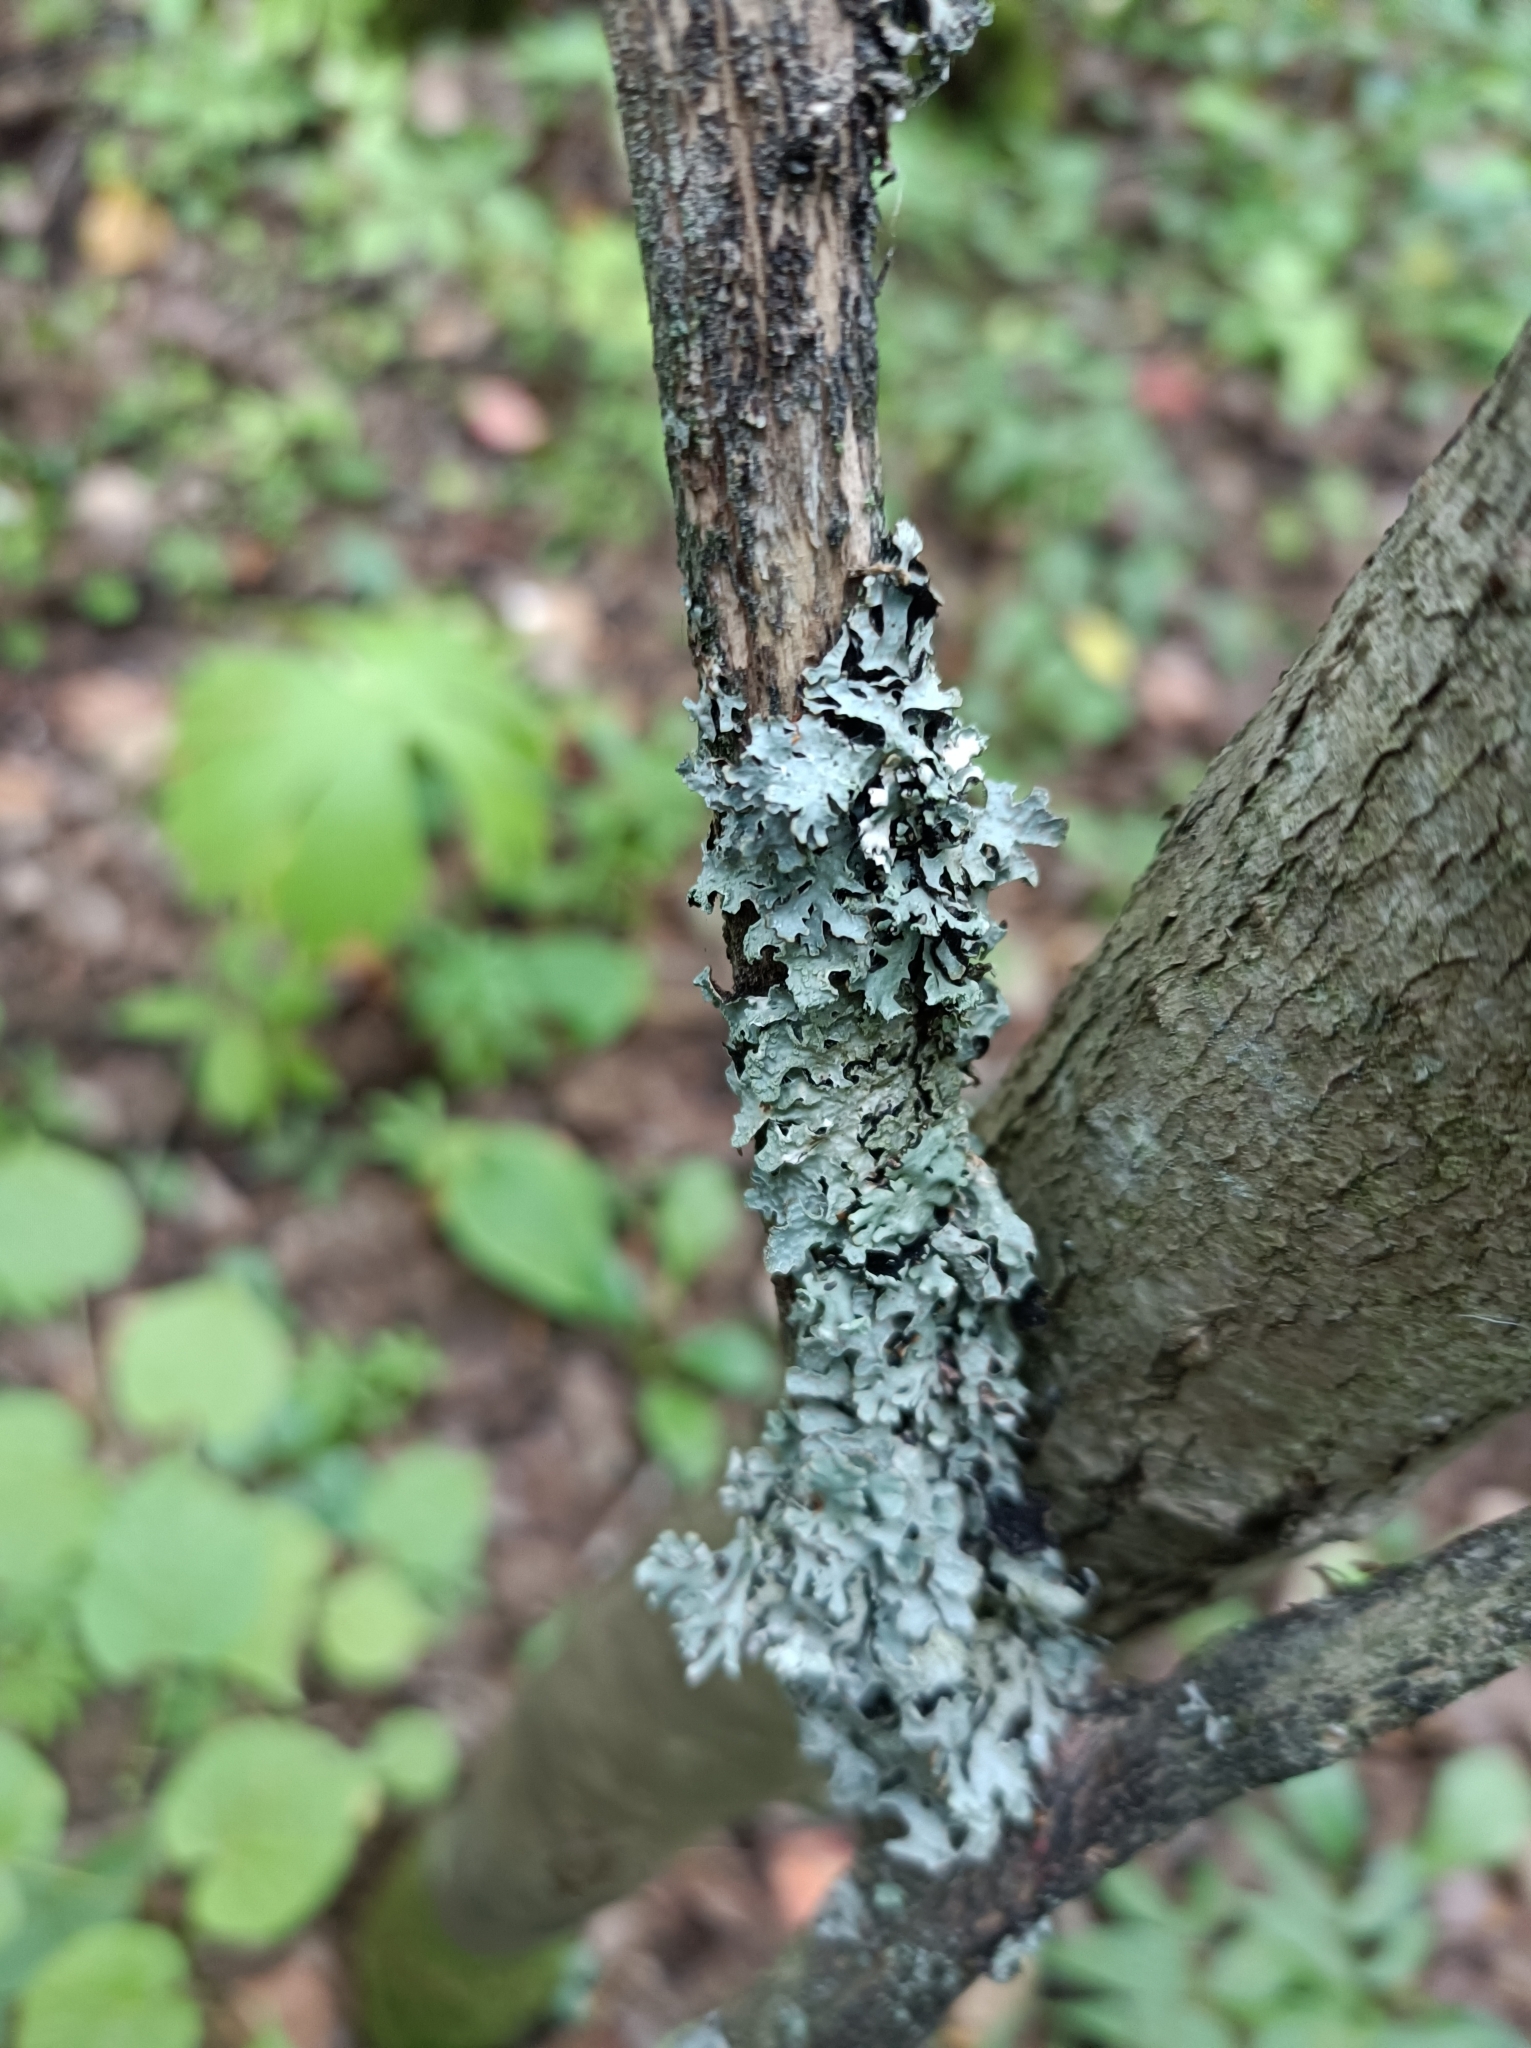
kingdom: Fungi
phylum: Ascomycota
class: Lecanoromycetes
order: Lecanorales
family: Parmeliaceae
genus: Parmelia
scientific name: Parmelia sulcata
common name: Netted shield lichen
